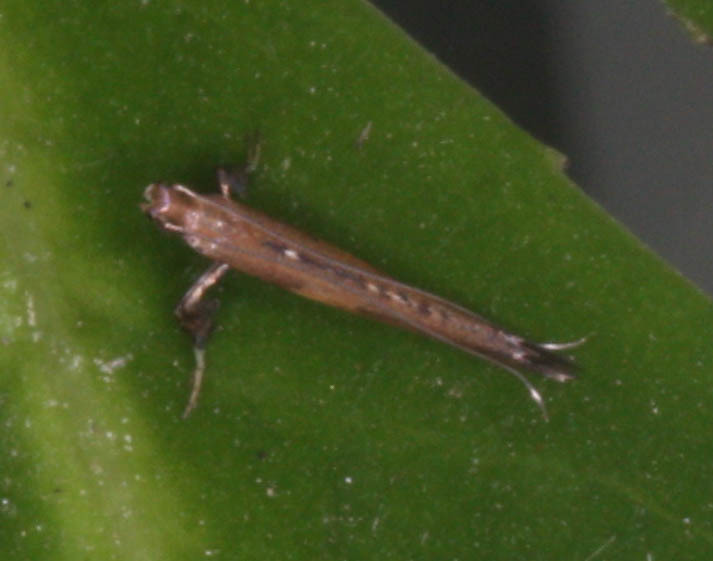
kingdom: Animalia
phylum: Arthropoda
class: Insecta
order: Lepidoptera
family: Gracillariidae
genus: Caloptilia
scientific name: Caloptilia diversilobiella
